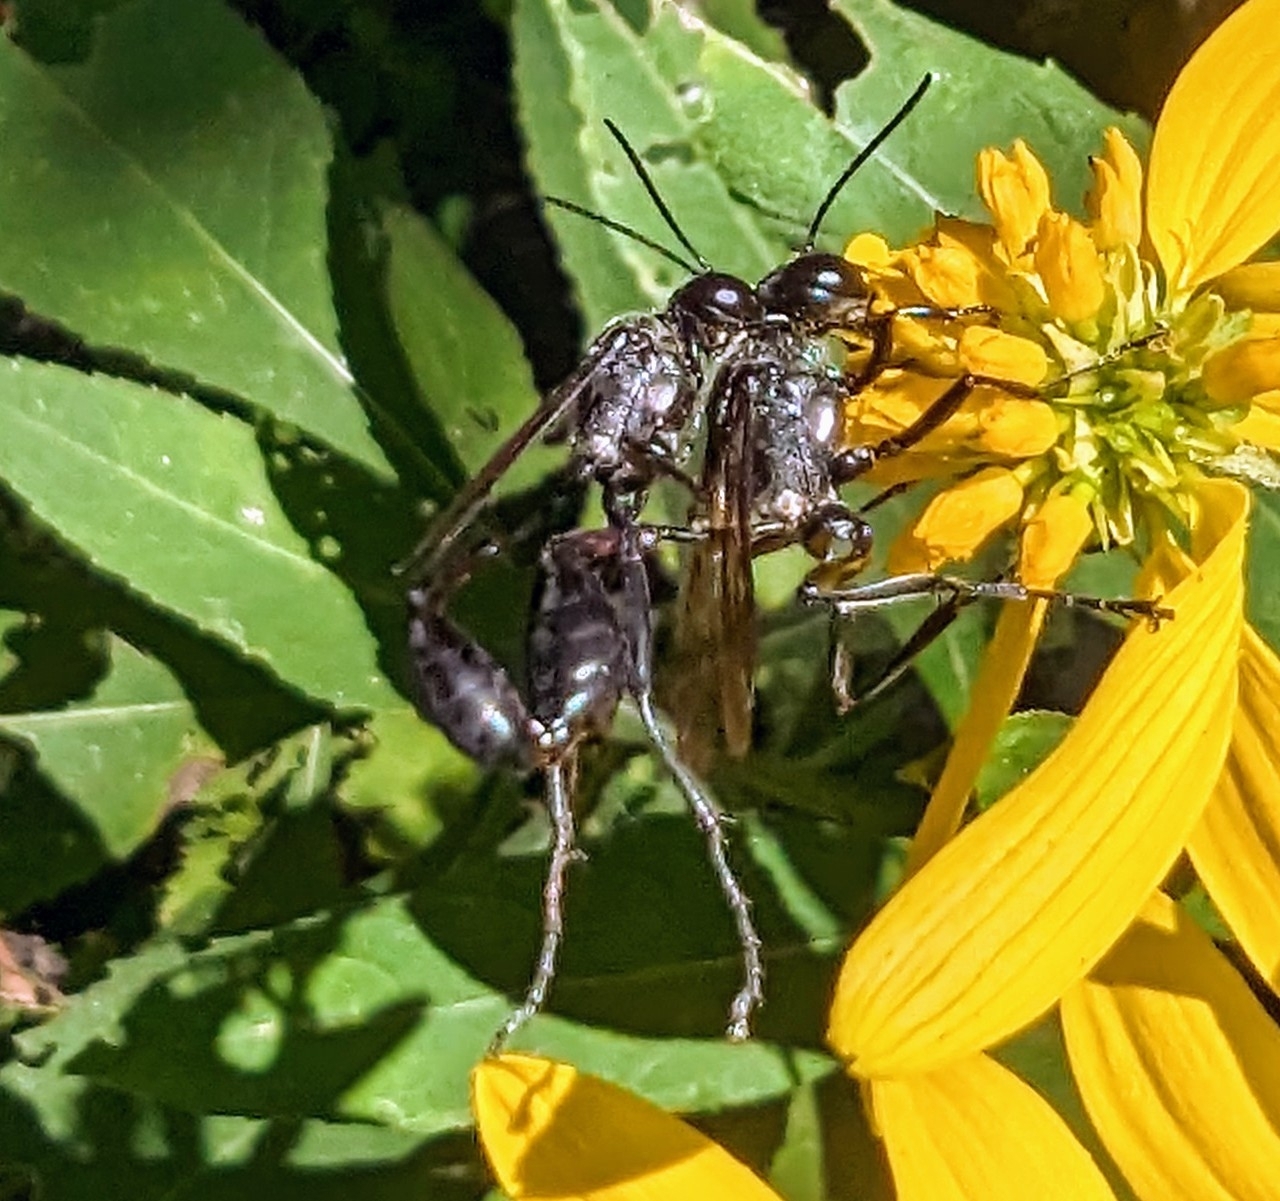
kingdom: Animalia
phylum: Arthropoda
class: Insecta
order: Hymenoptera
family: Sphecidae
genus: Eremnophila
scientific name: Eremnophila aureonotata
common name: Gold-marked thread-waisted wasp
